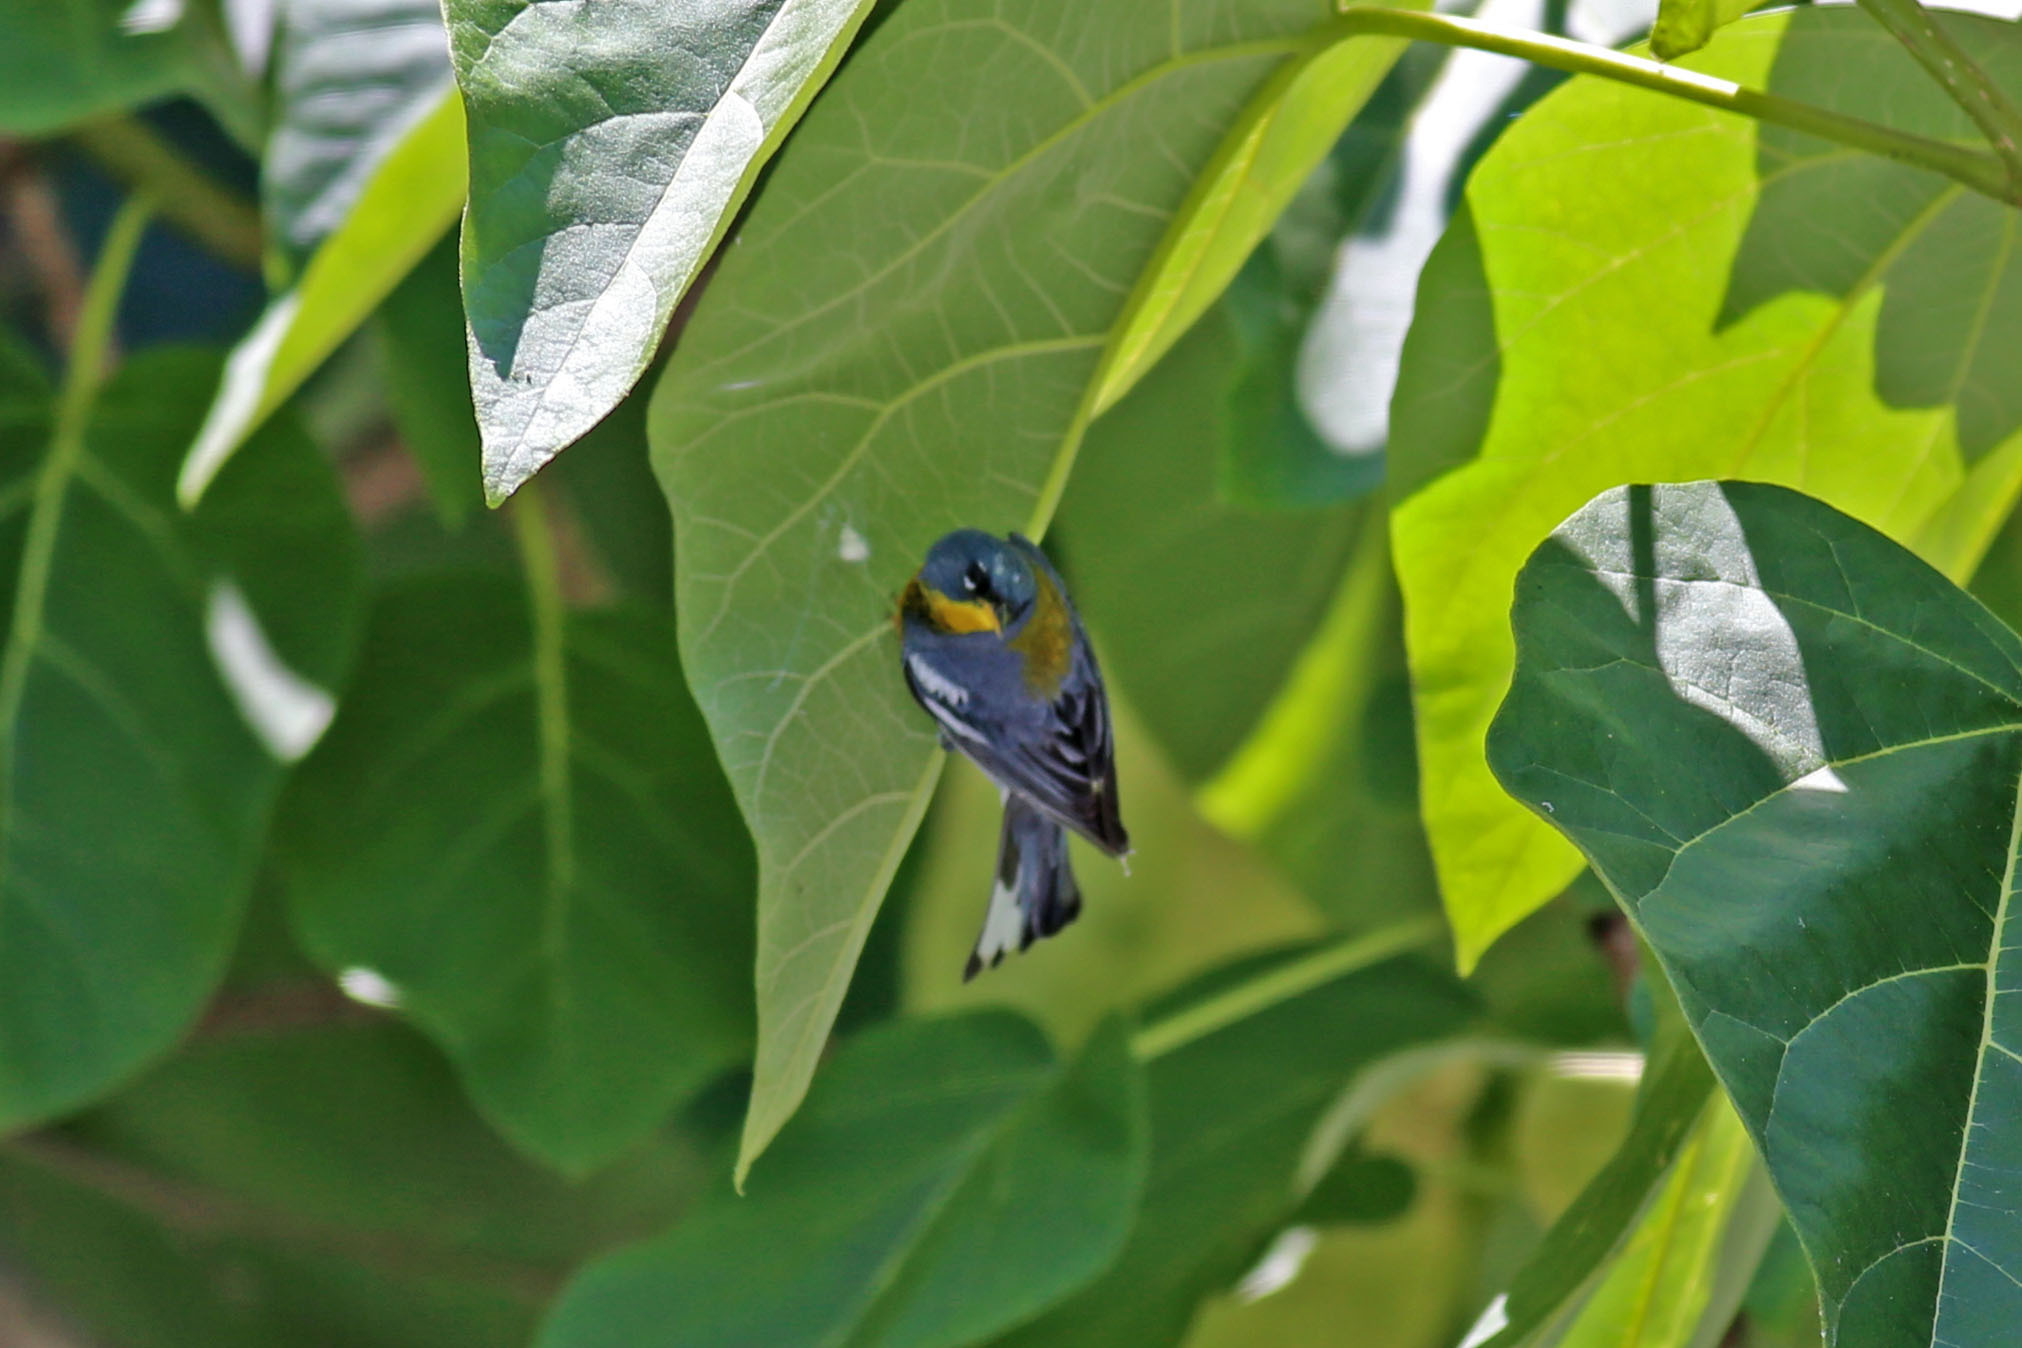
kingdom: Animalia
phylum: Chordata
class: Aves
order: Passeriformes
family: Parulidae
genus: Setophaga
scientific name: Setophaga americana
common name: Northern parula
